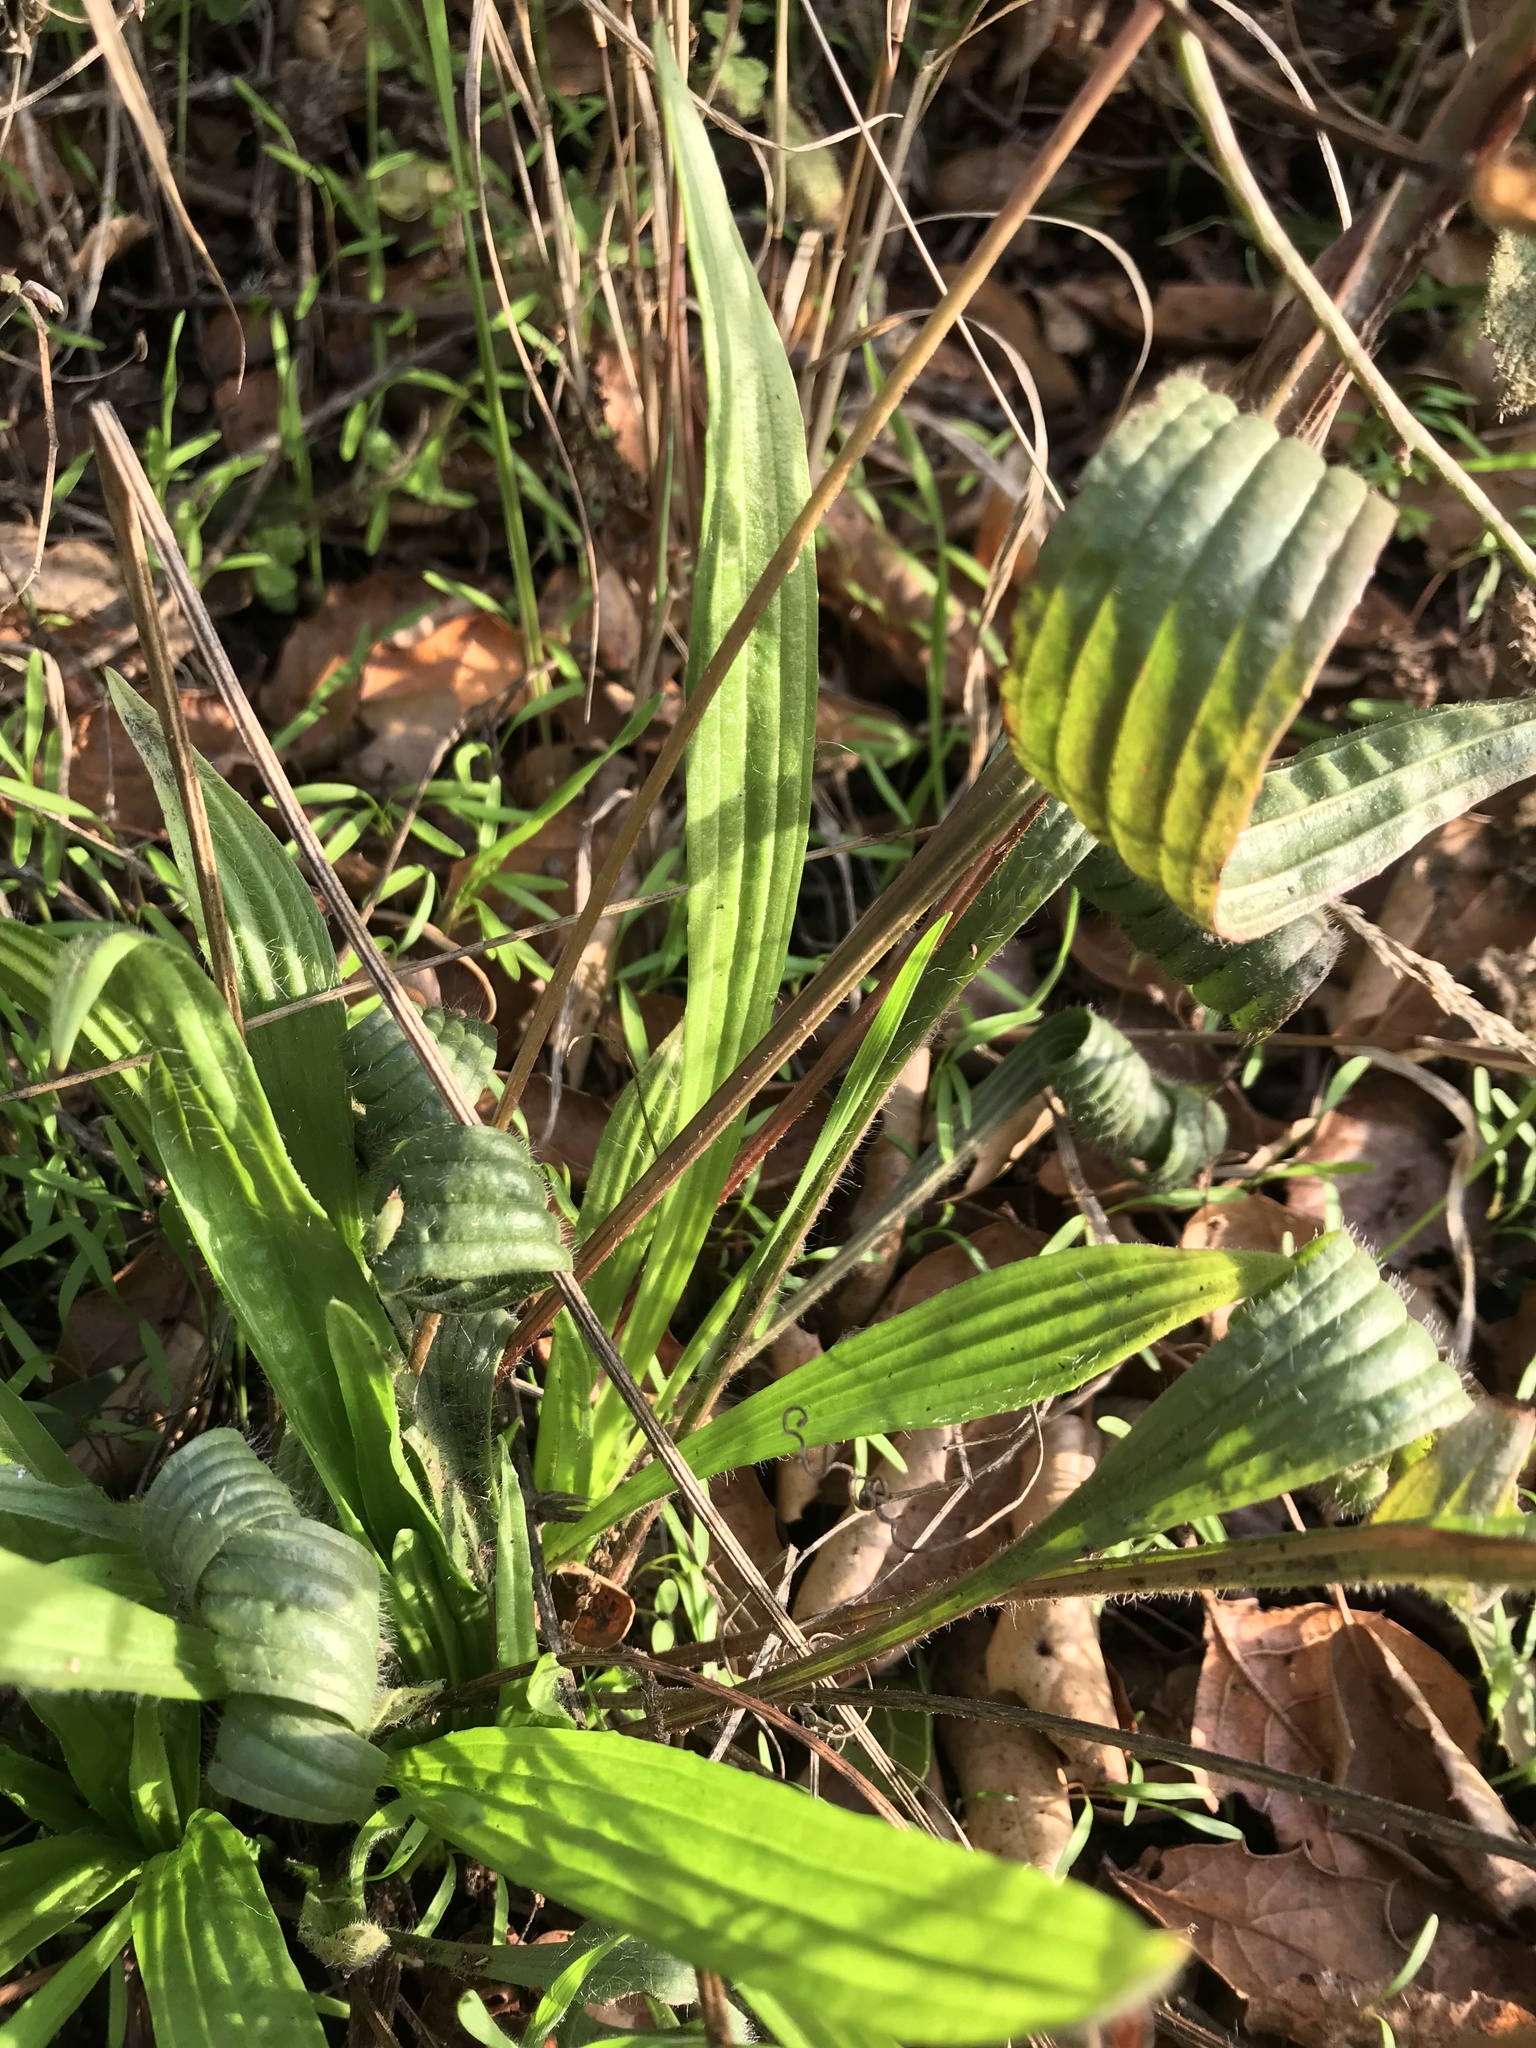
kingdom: Plantae
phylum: Tracheophyta
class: Magnoliopsida
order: Lamiales
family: Plantaginaceae
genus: Plantago
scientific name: Plantago lanceolata
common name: Ribwort plantain
